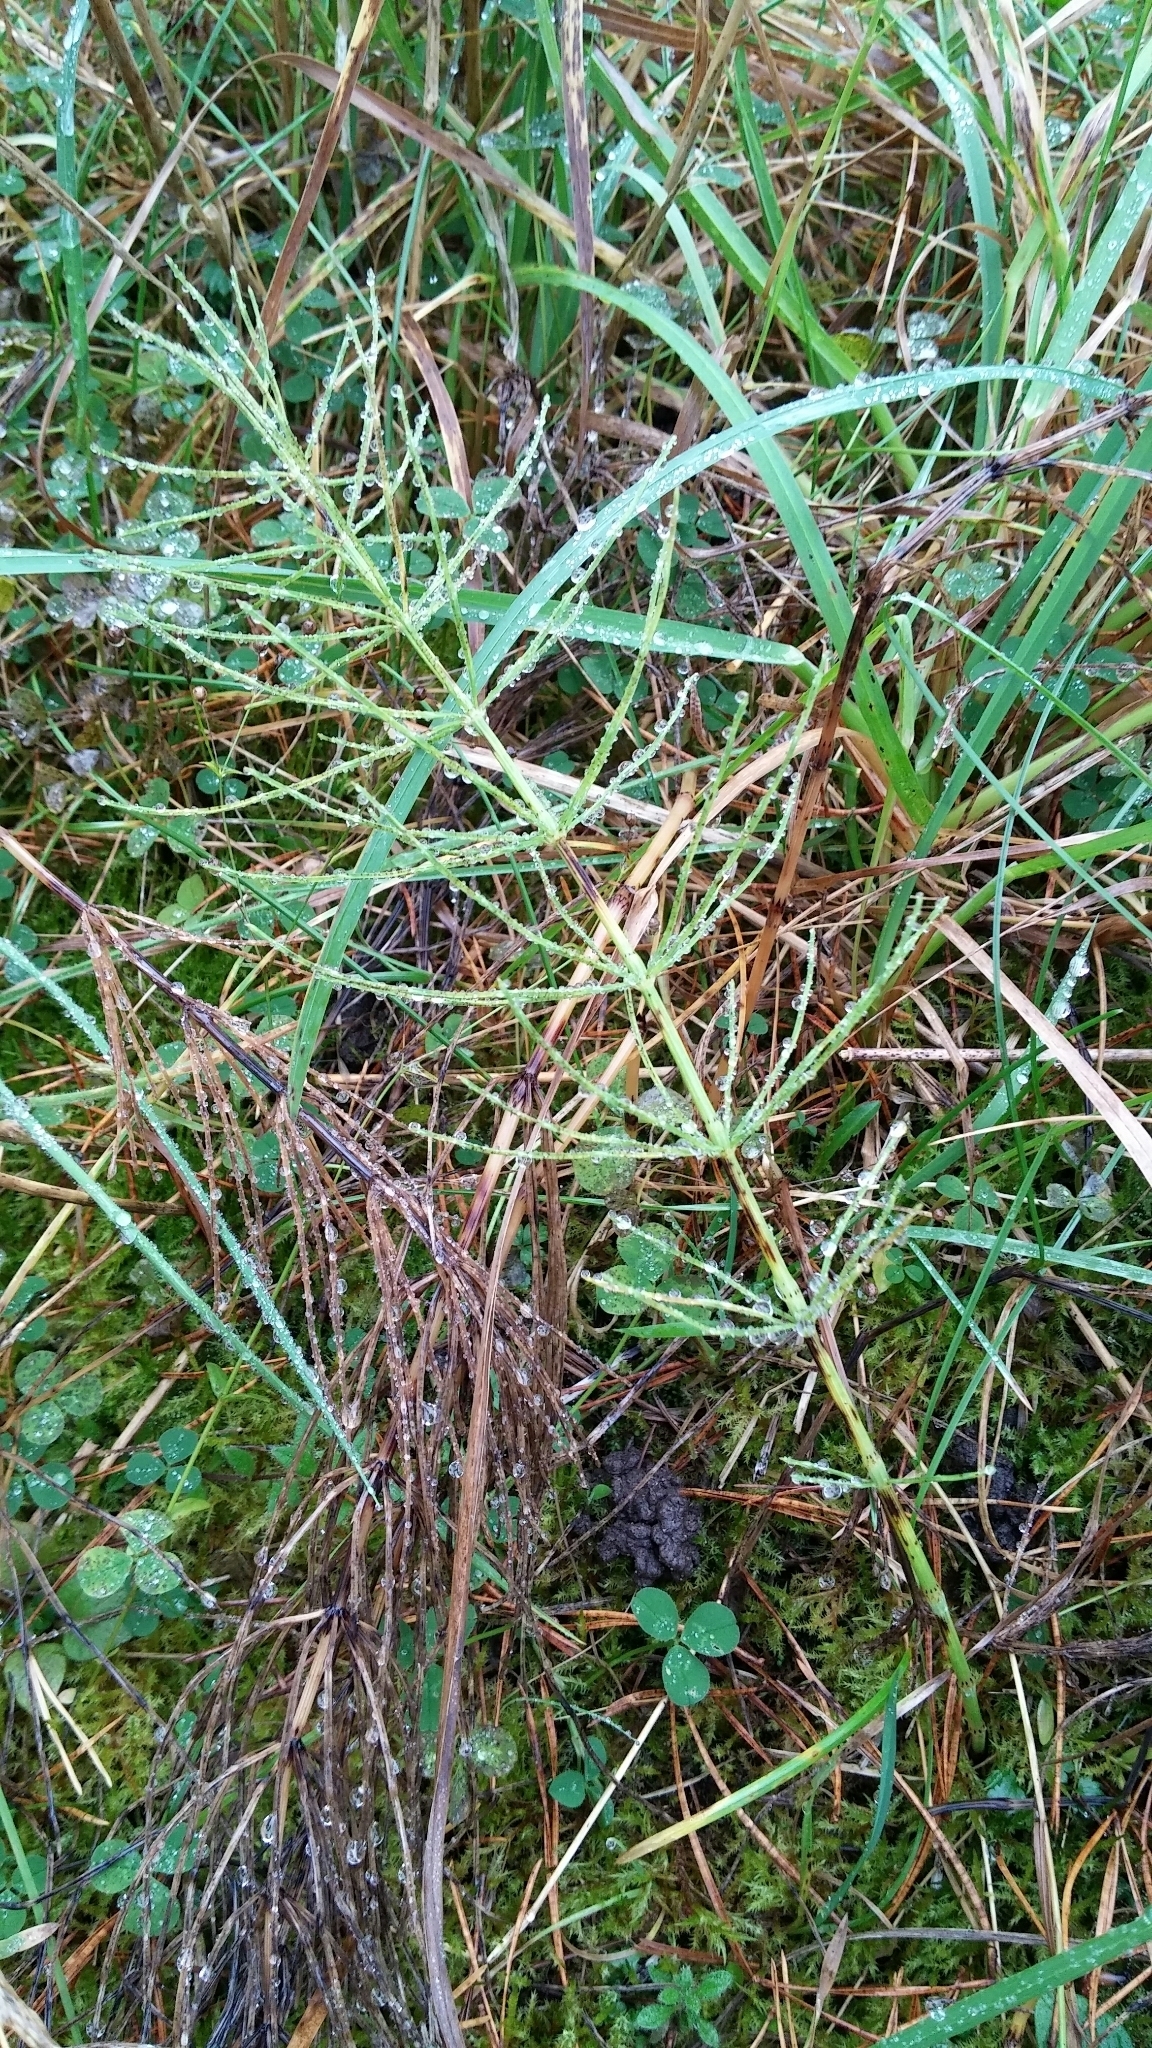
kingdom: Plantae
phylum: Tracheophyta
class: Polypodiopsida
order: Equisetales
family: Equisetaceae
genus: Equisetum
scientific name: Equisetum arvense
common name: Field horsetail
